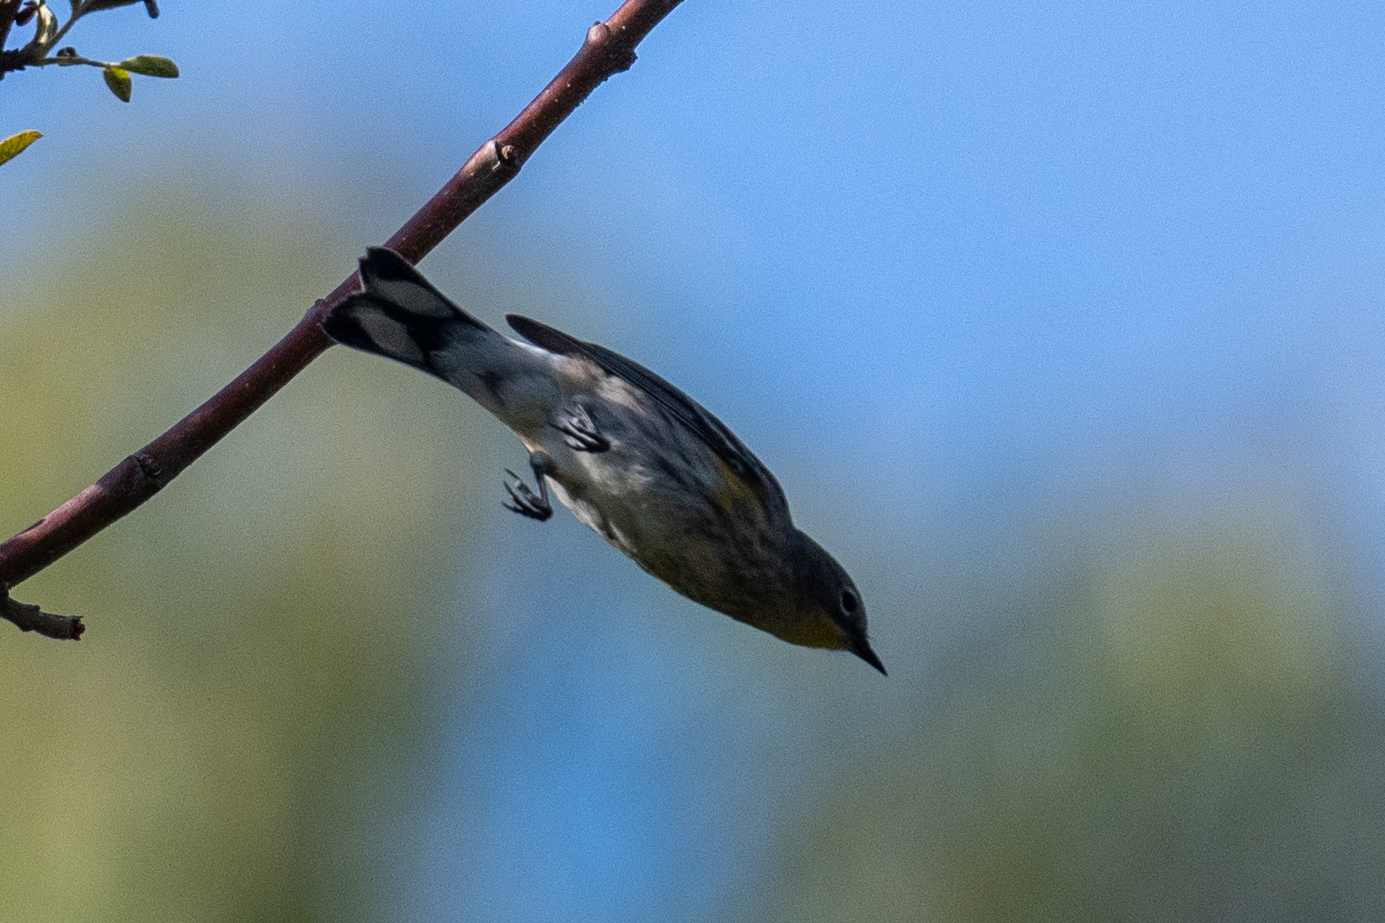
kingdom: Animalia
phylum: Chordata
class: Aves
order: Passeriformes
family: Parulidae
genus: Setophaga
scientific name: Setophaga coronata
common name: Myrtle warbler
